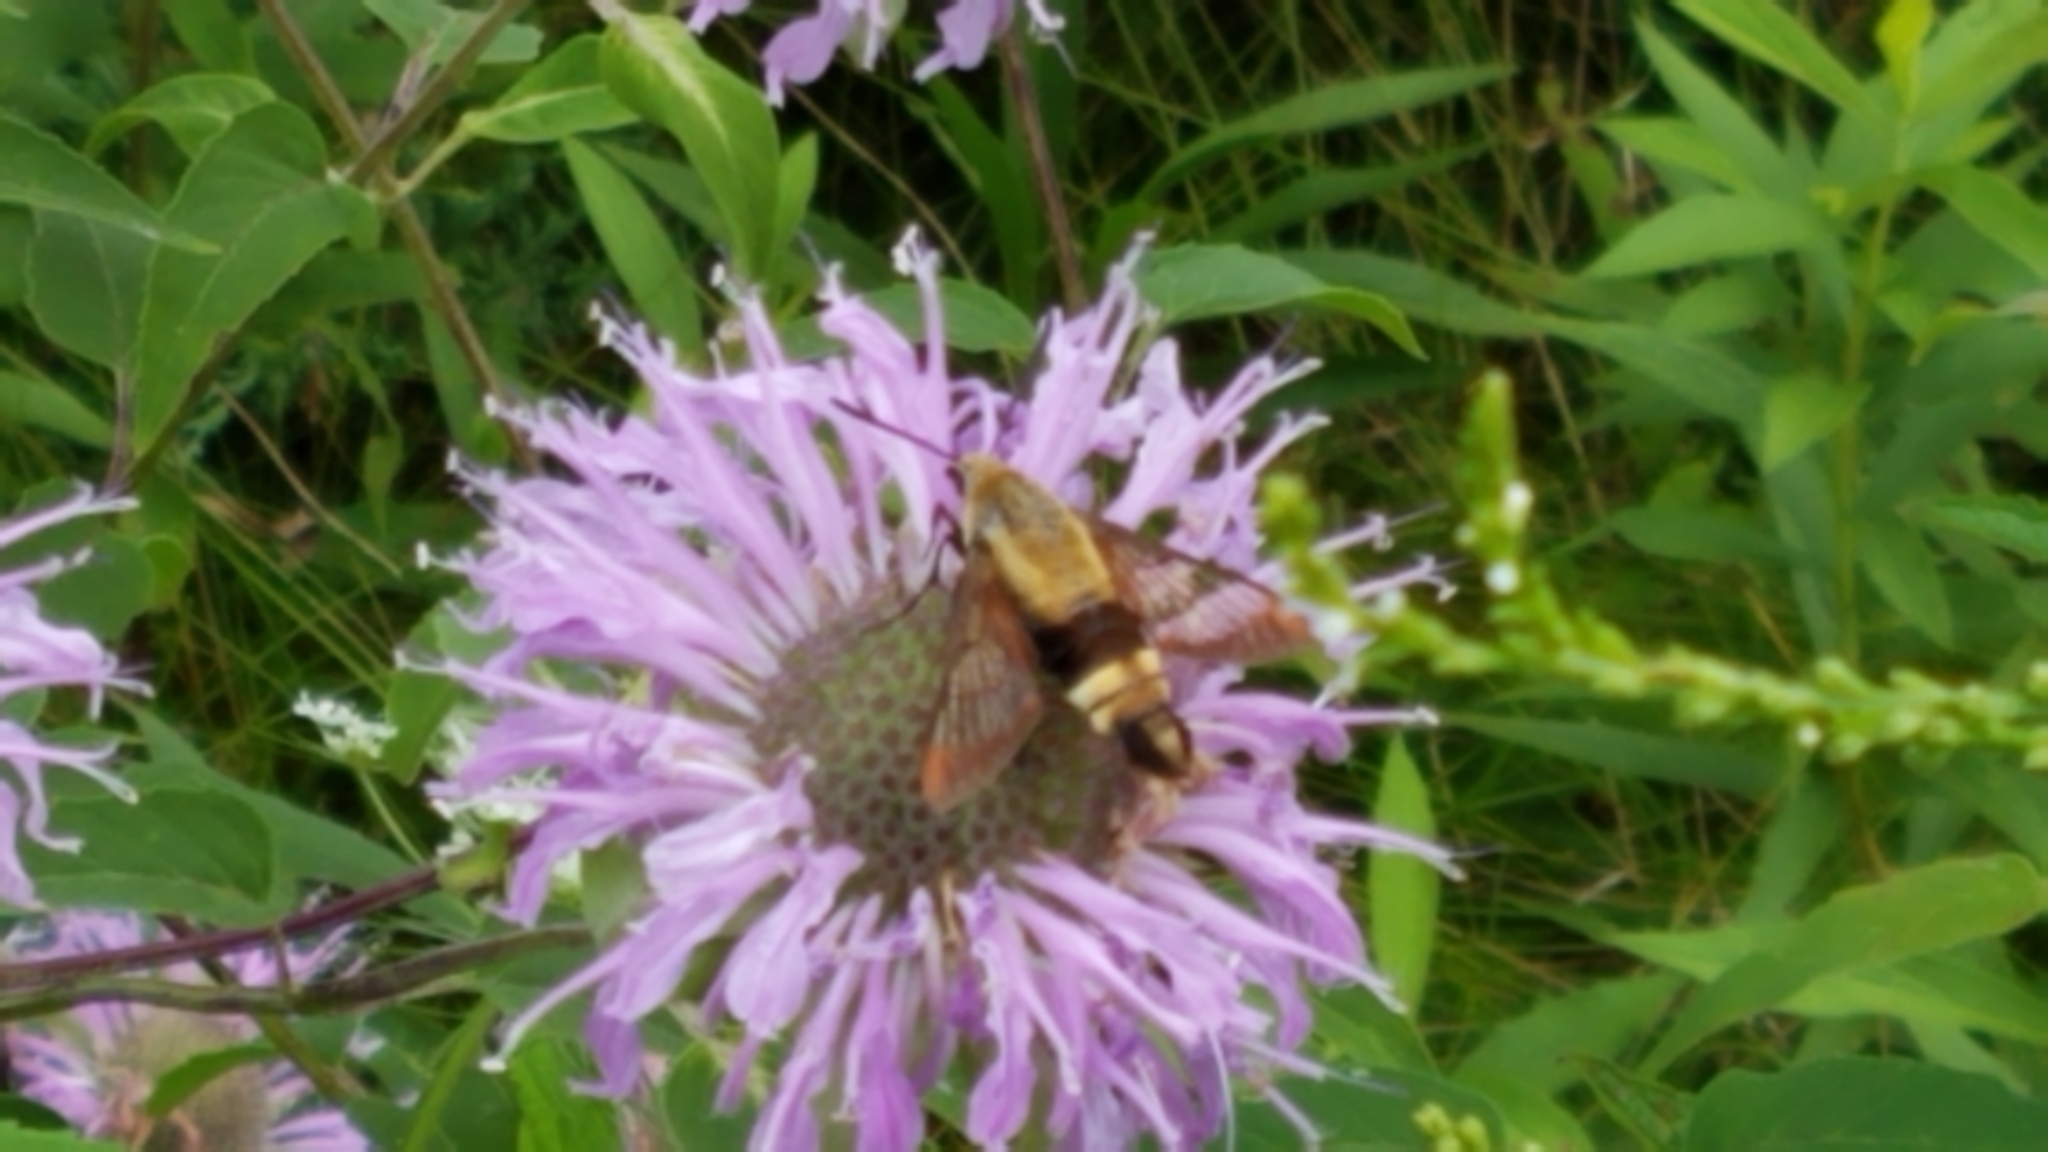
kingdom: Animalia
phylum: Arthropoda
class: Insecta
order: Lepidoptera
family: Sphingidae
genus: Hemaris
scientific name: Hemaris diffinis
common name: Bumblebee moth
